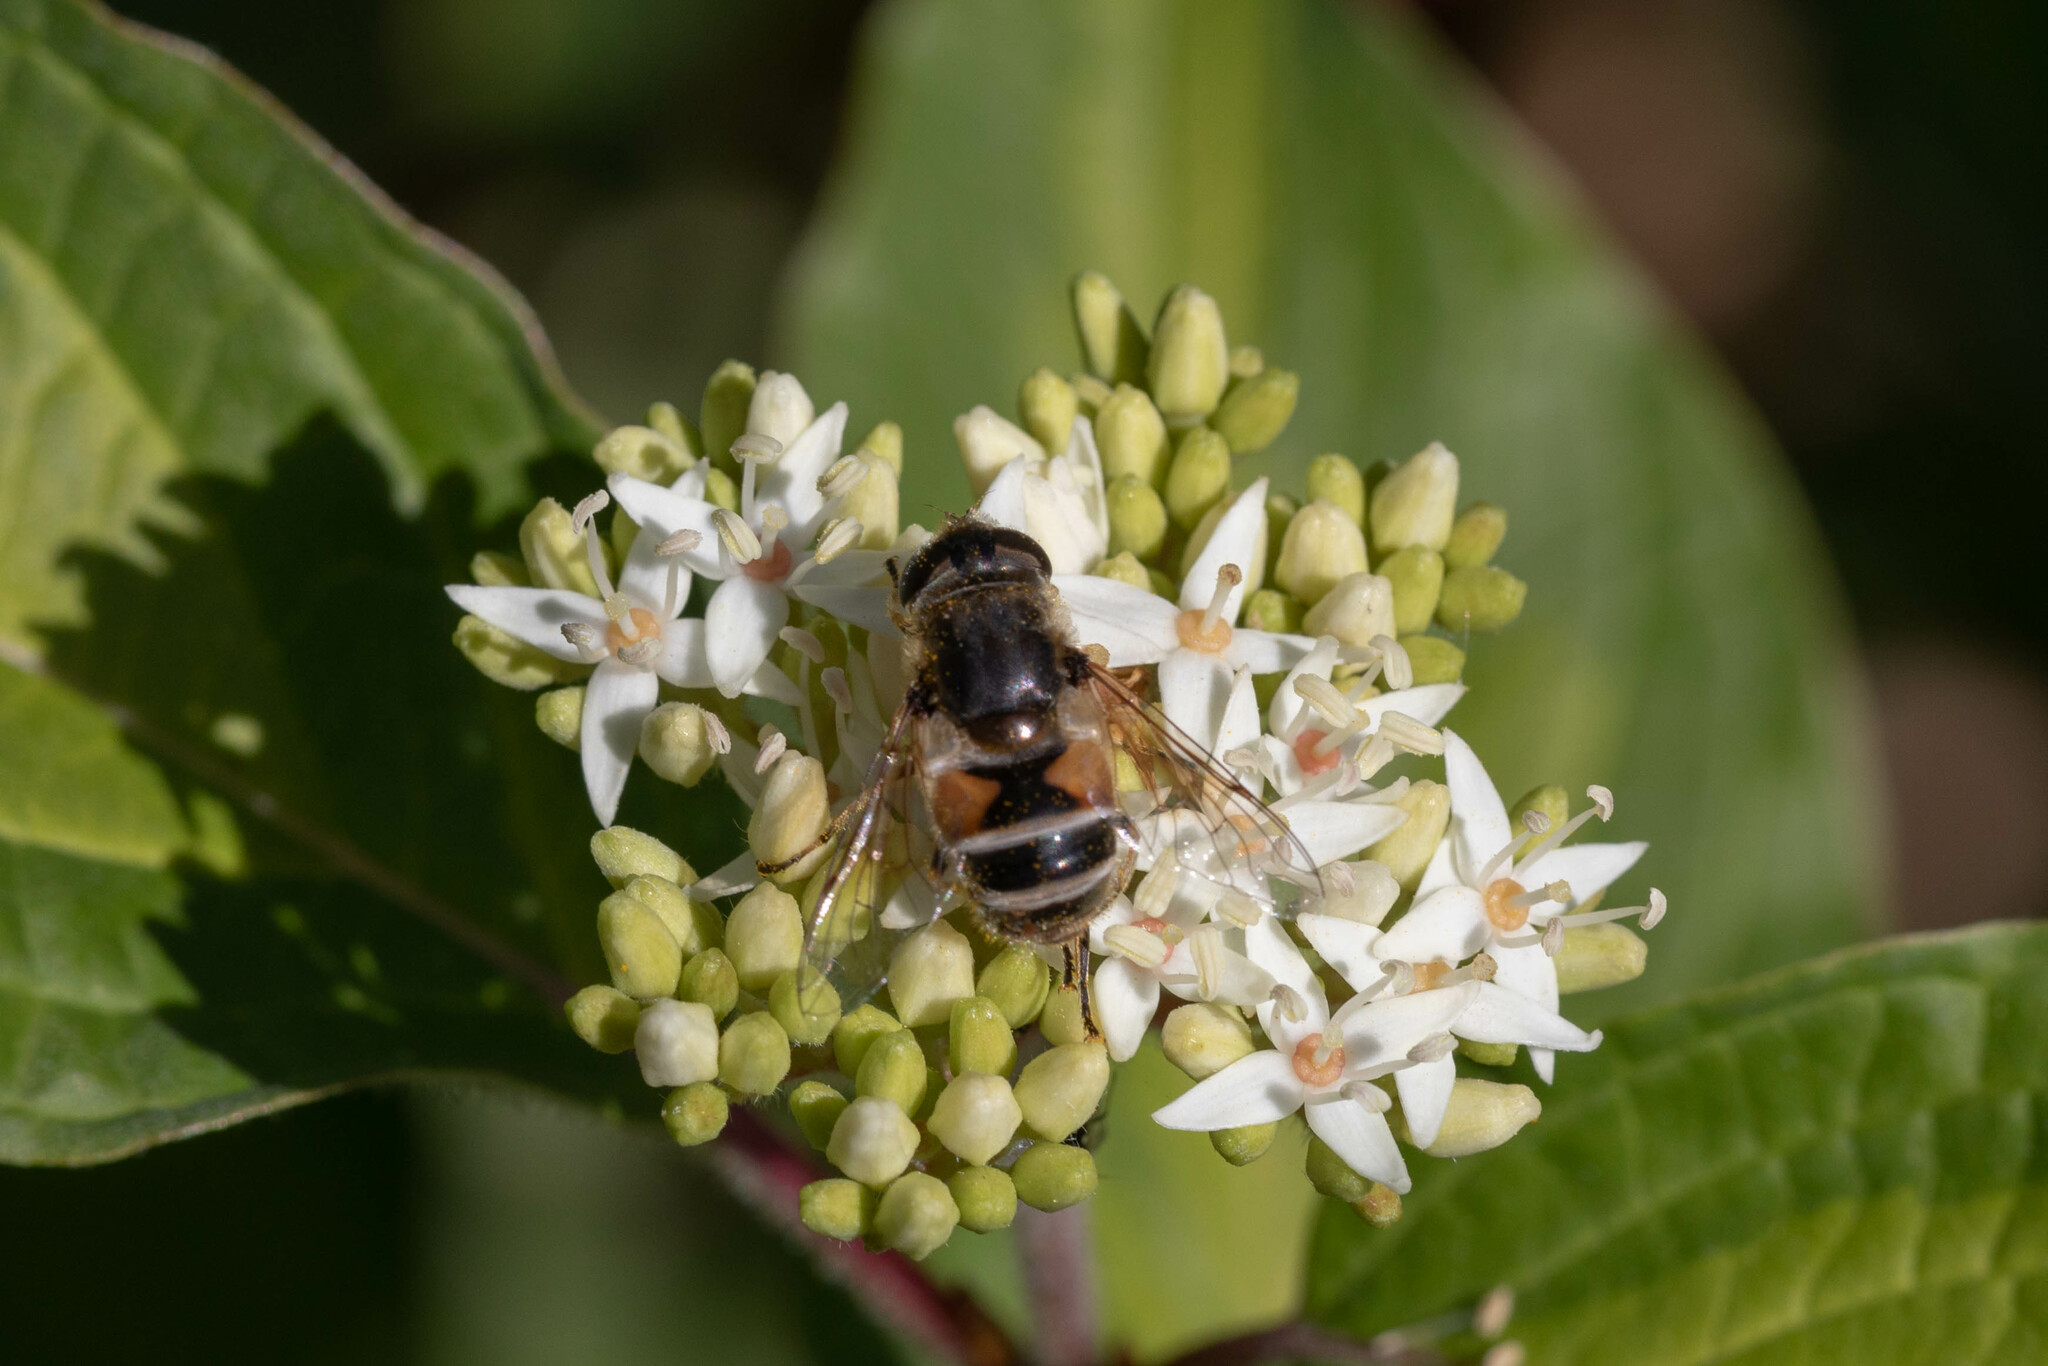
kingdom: Animalia
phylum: Arthropoda
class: Insecta
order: Diptera
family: Syrphidae
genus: Eristalis
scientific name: Eristalis arbustorum
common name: Hover fly
